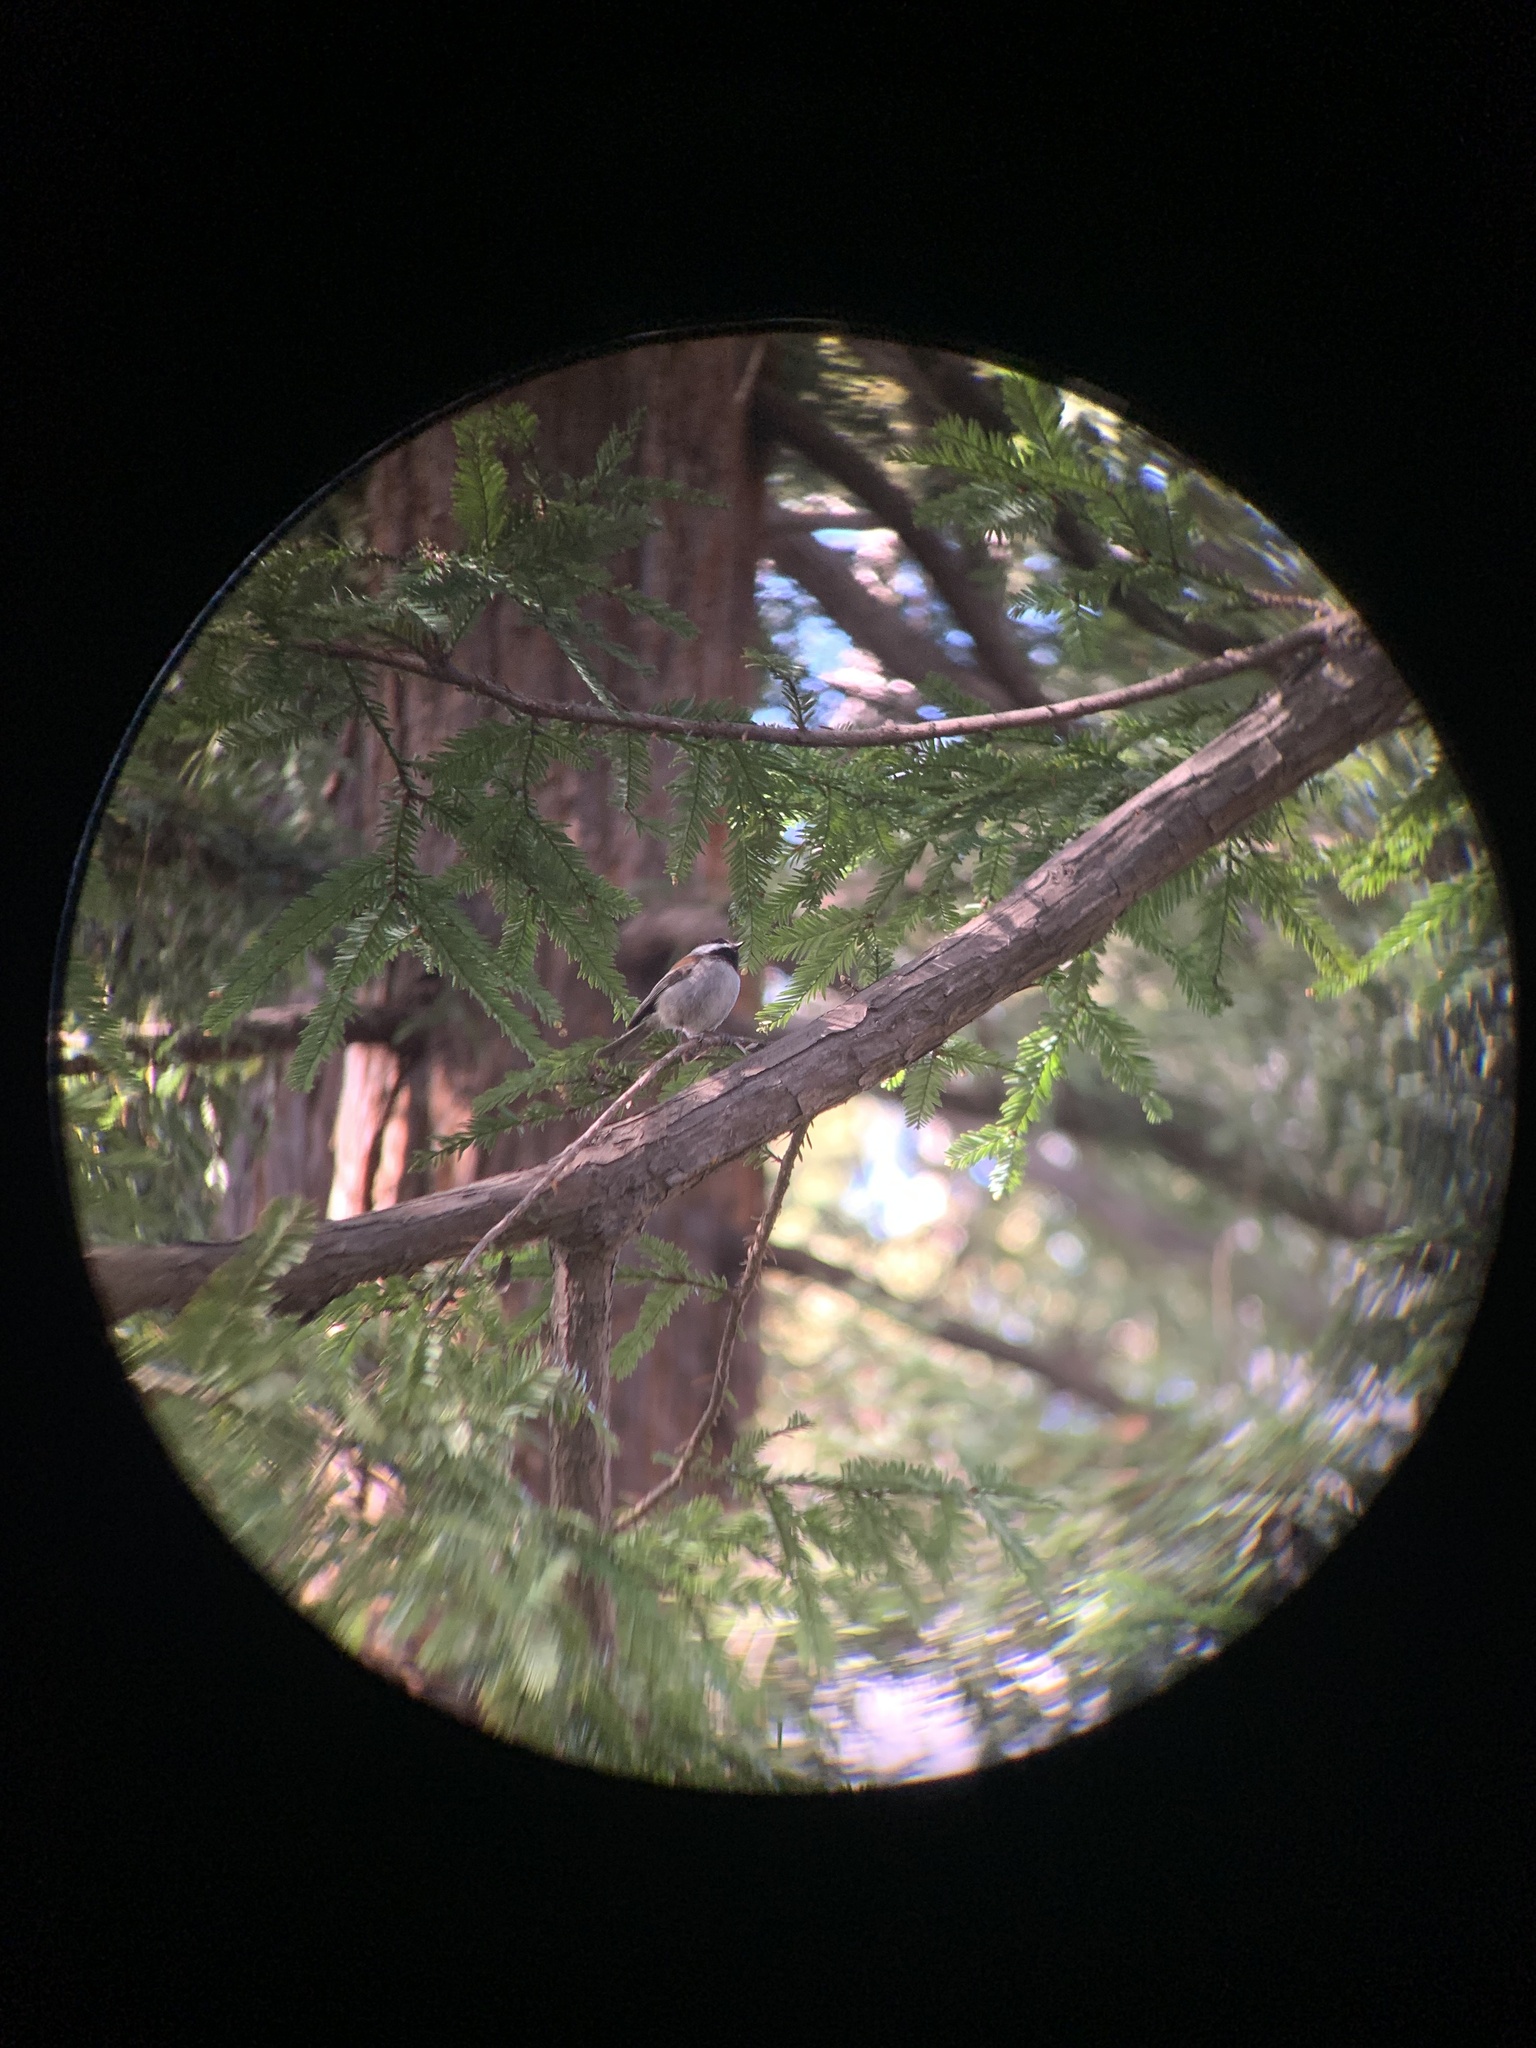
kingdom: Animalia
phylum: Chordata
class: Aves
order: Passeriformes
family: Paridae
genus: Poecile
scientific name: Poecile rufescens
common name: Chestnut-backed chickadee
